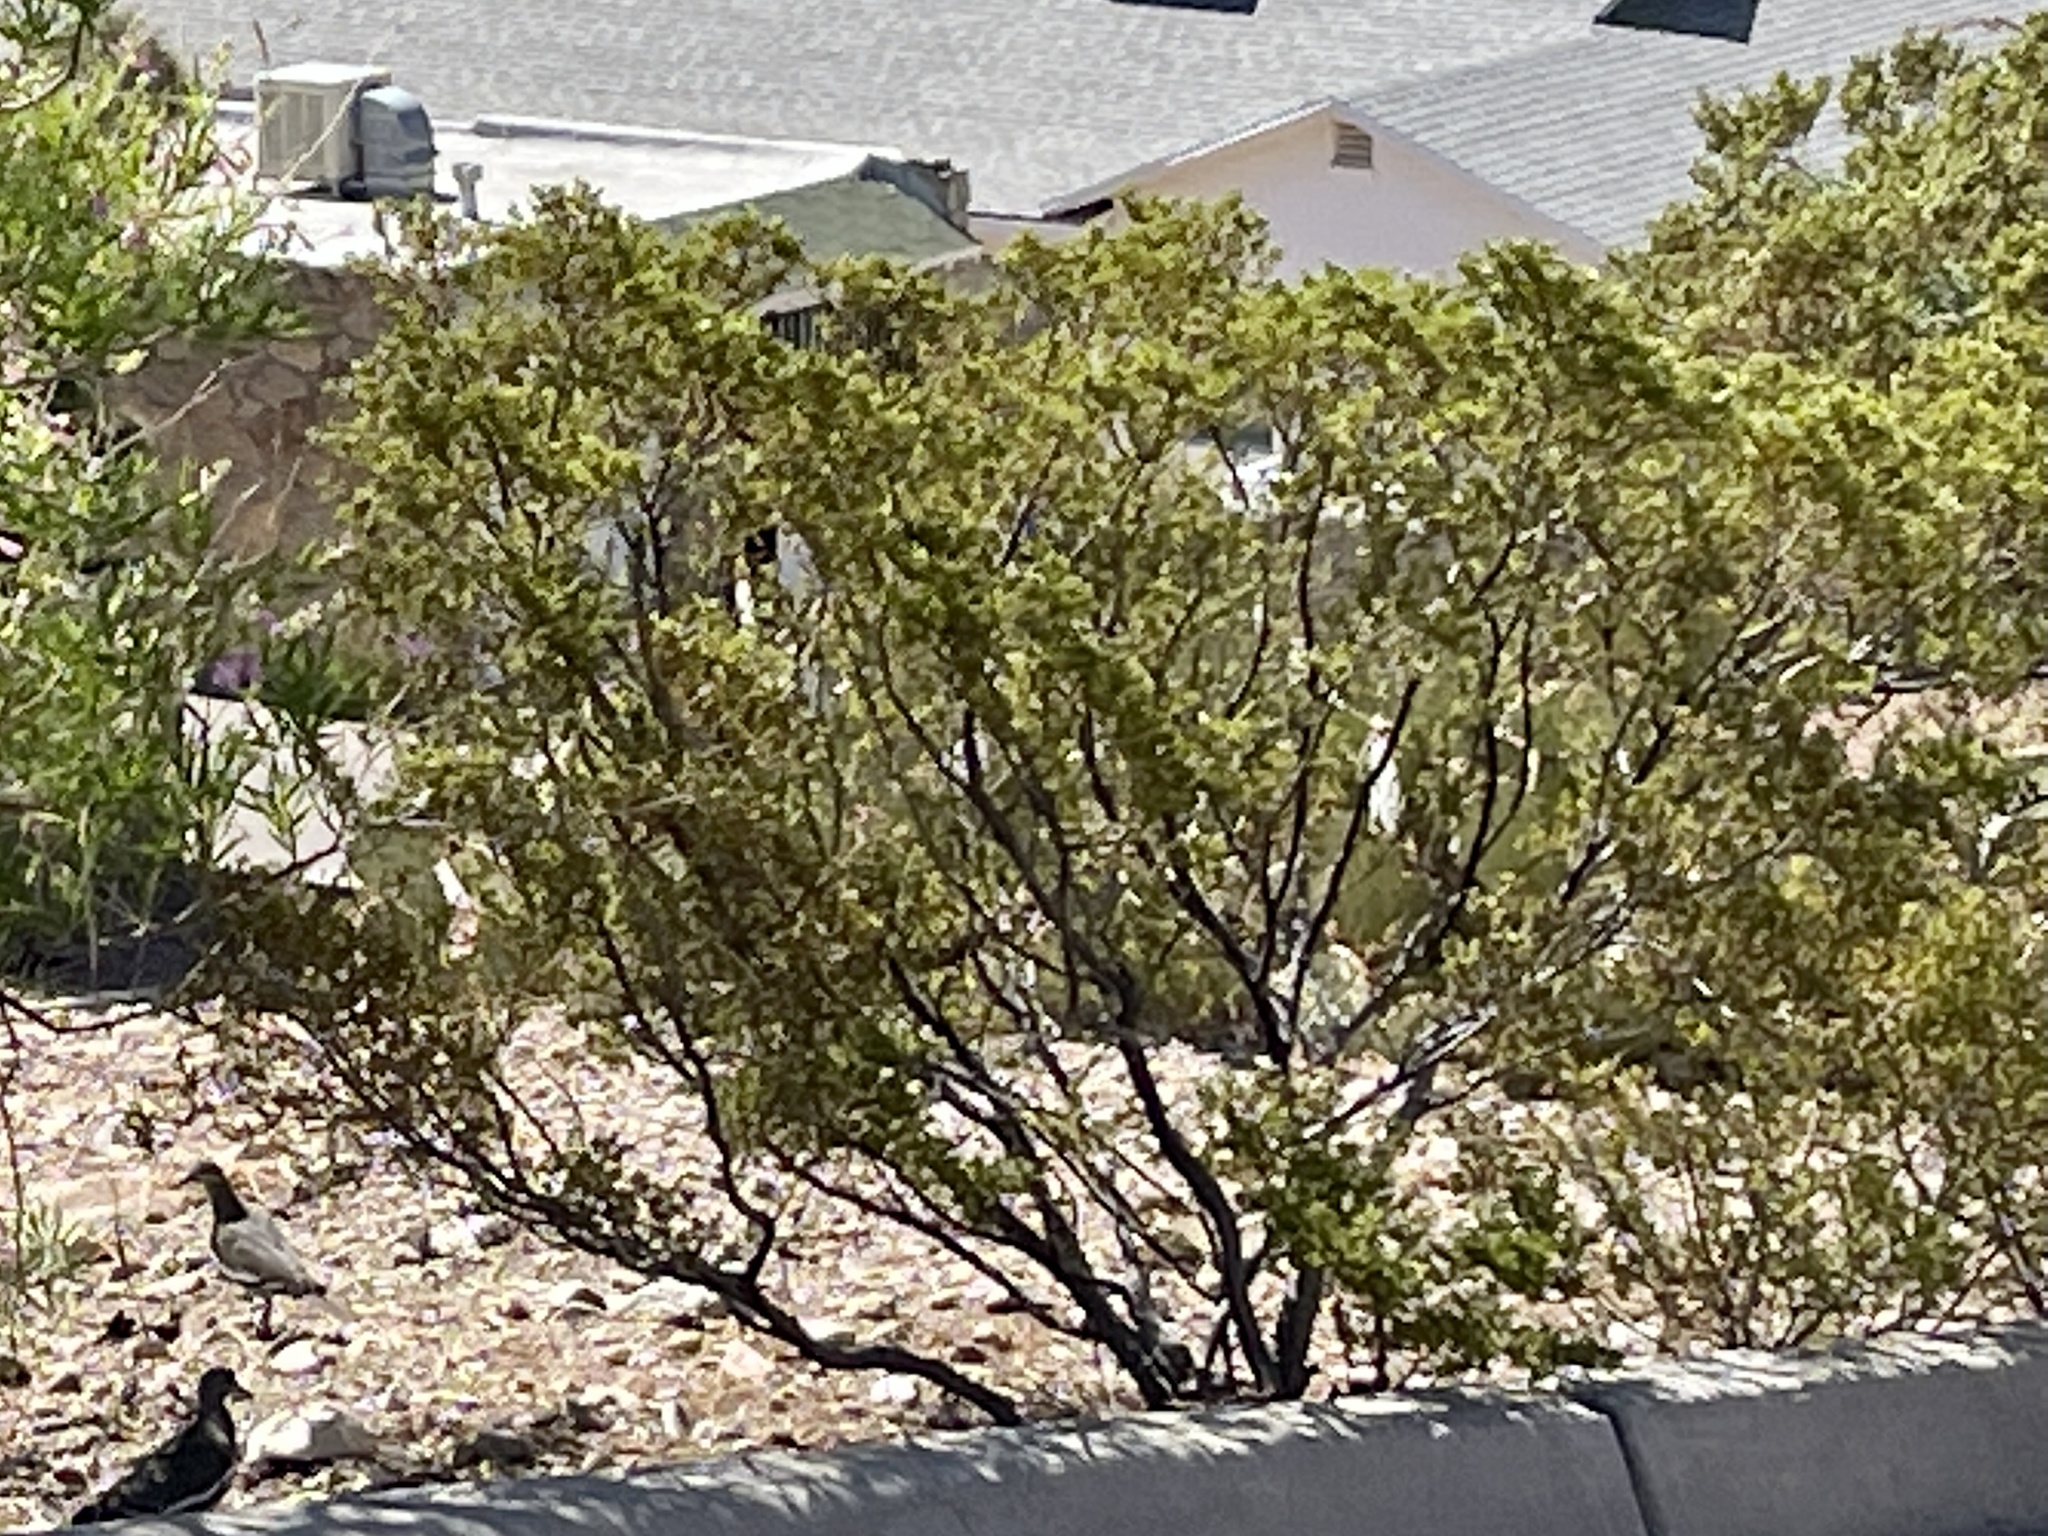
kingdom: Plantae
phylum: Tracheophyta
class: Magnoliopsida
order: Zygophyllales
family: Zygophyllaceae
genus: Larrea
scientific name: Larrea tridentata
